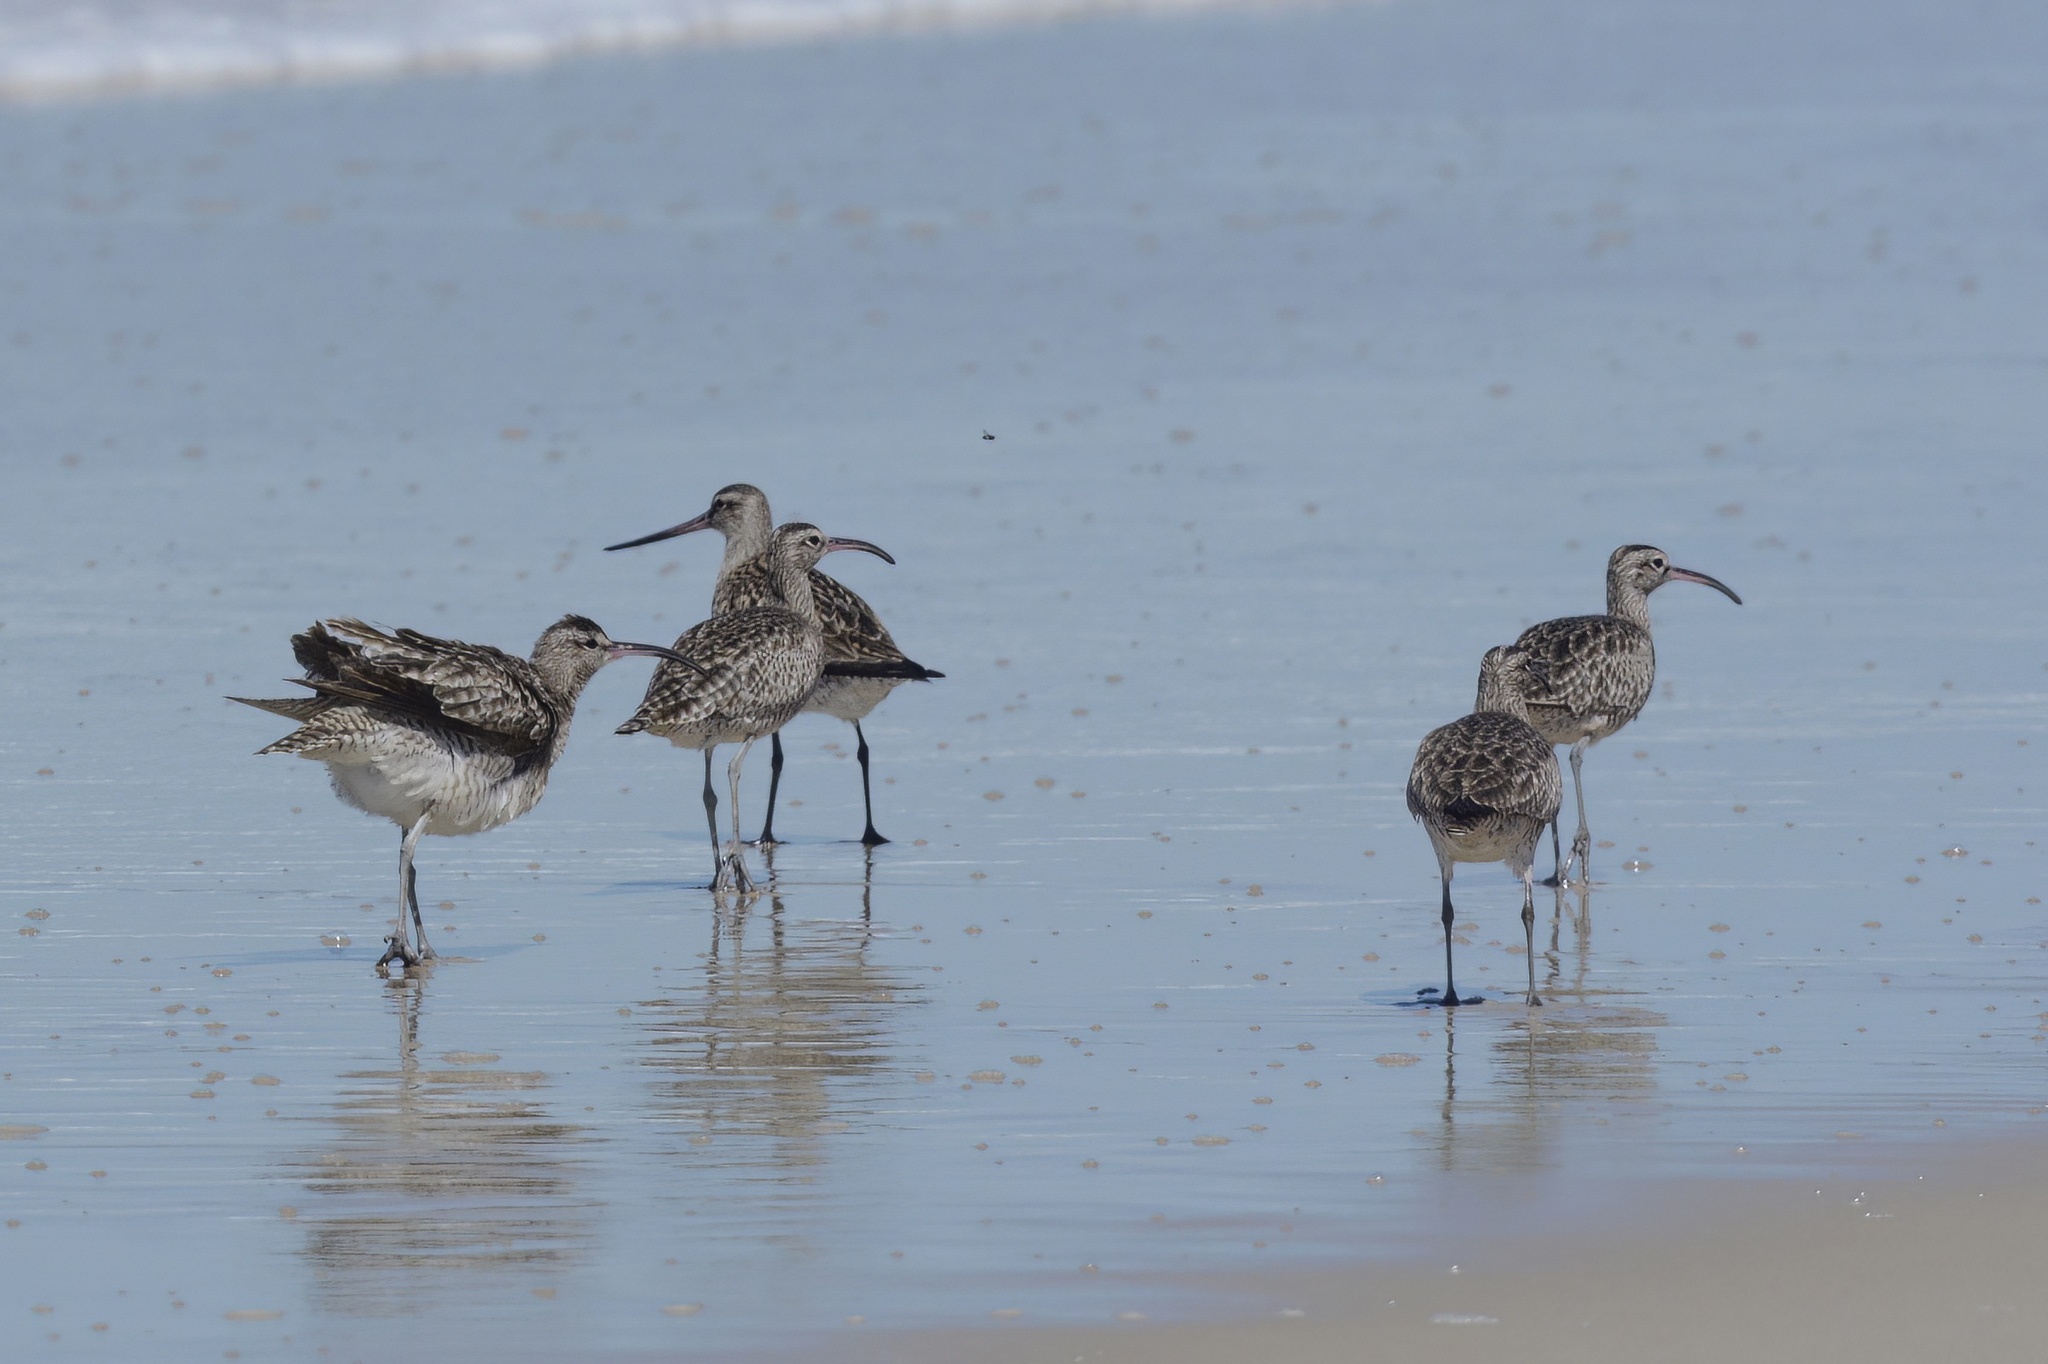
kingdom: Animalia
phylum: Chordata
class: Aves
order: Charadriiformes
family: Scolopacidae
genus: Numenius
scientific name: Numenius phaeopus
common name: Whimbrel
